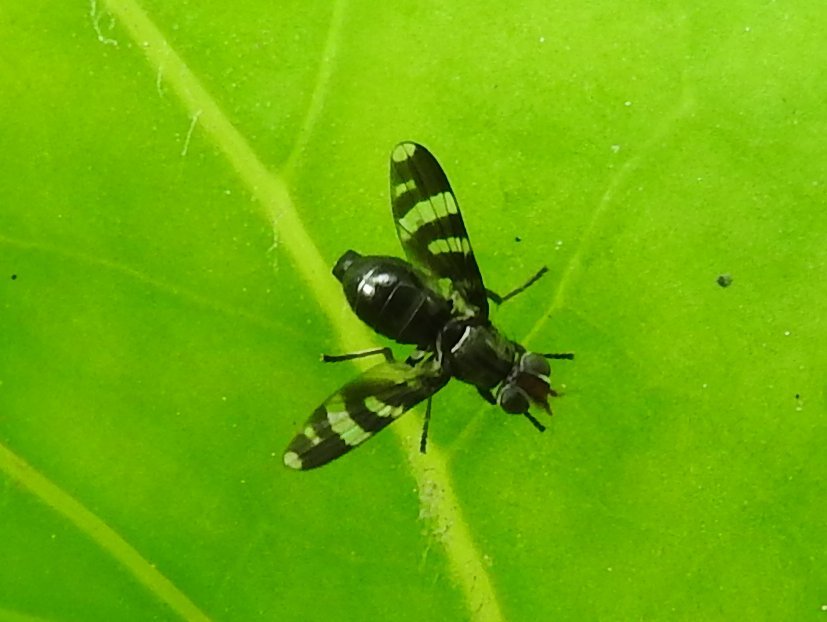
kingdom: Animalia
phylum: Arthropoda
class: Insecta
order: Diptera
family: Ulidiidae
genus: Herina
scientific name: Herina frondescentiae
